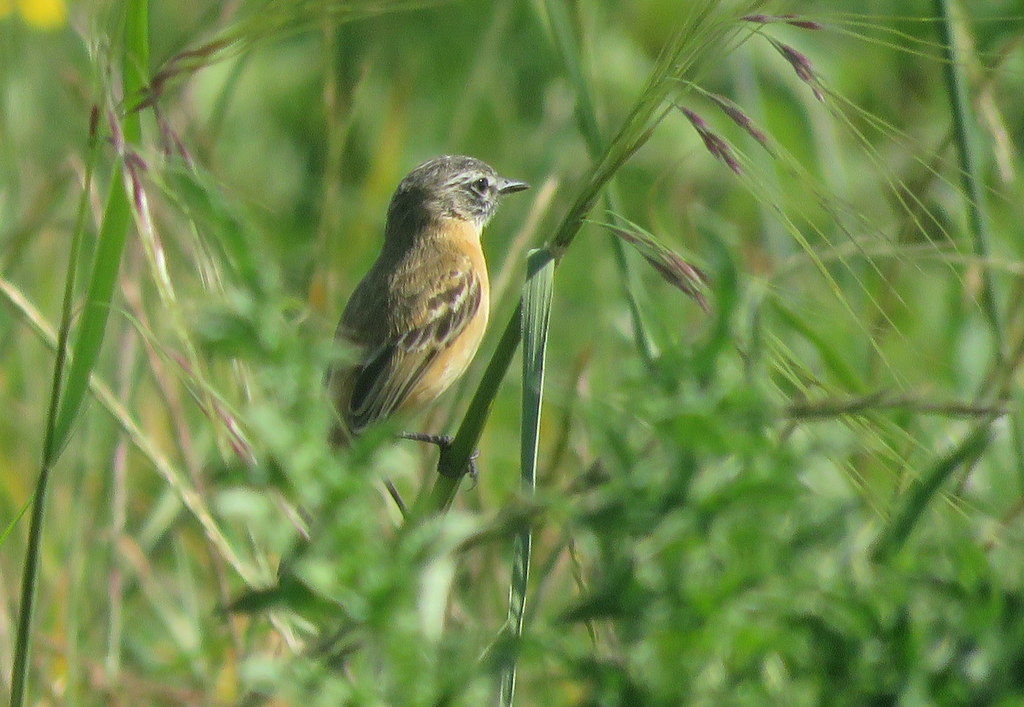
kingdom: Animalia
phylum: Chordata
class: Aves
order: Passeriformes
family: Tyrannidae
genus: Polystictus
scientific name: Polystictus pectoralis
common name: Bearded tachuri
